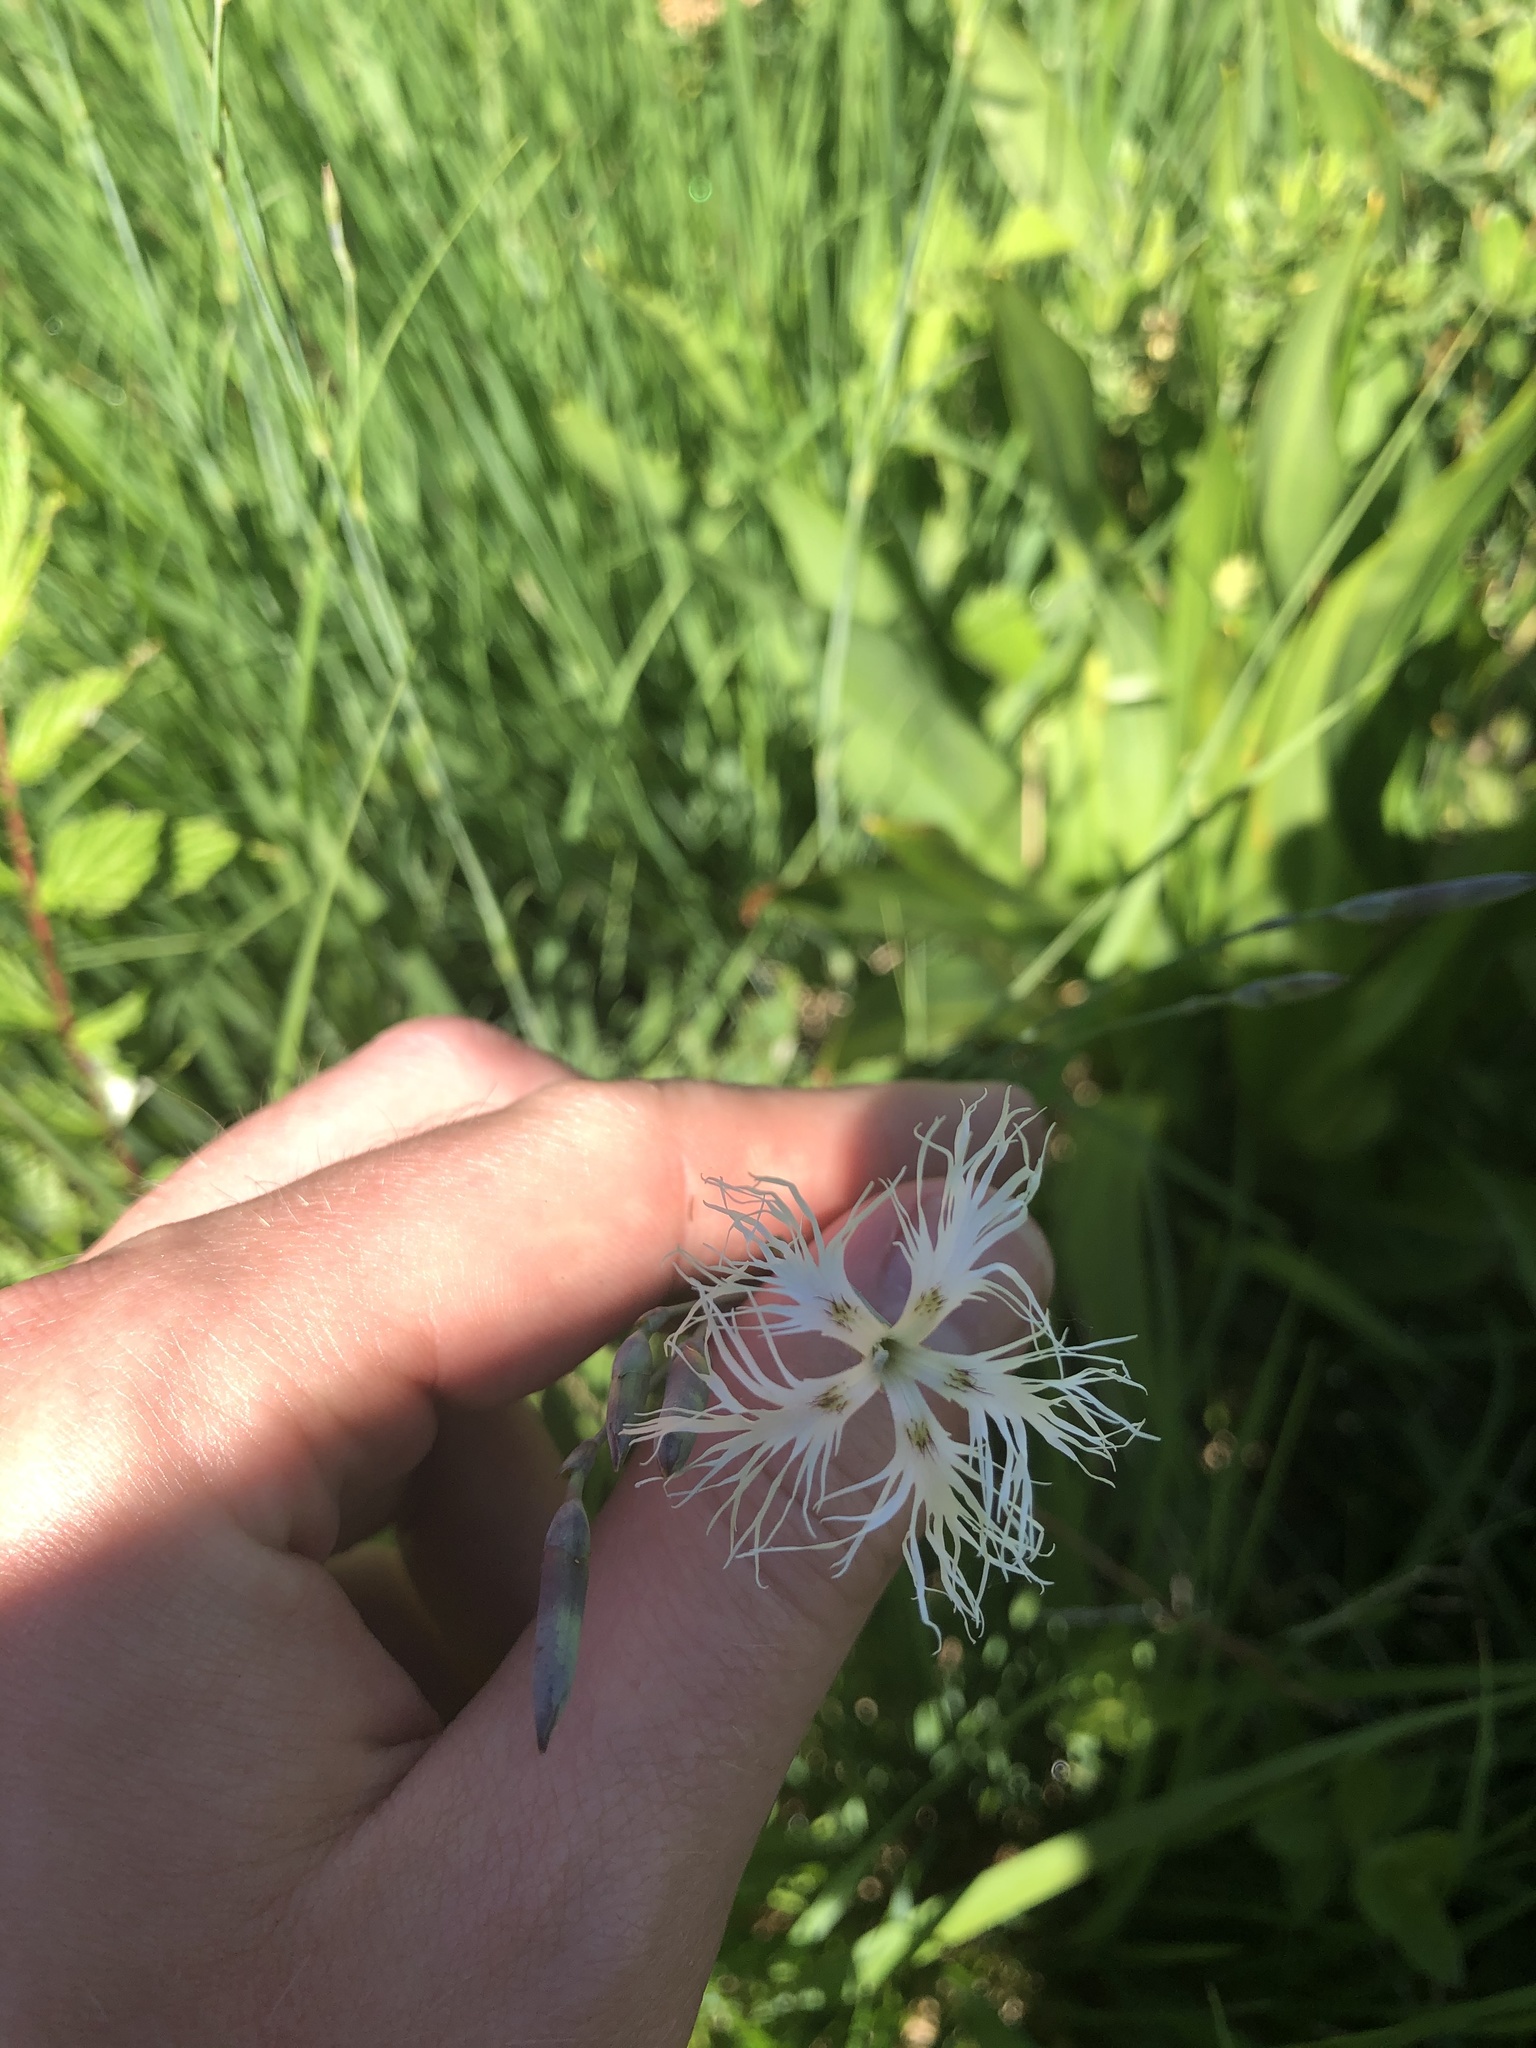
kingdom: Plantae
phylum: Tracheophyta
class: Magnoliopsida
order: Caryophyllales
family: Caryophyllaceae
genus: Dianthus
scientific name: Dianthus superbus
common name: Fringed pink
